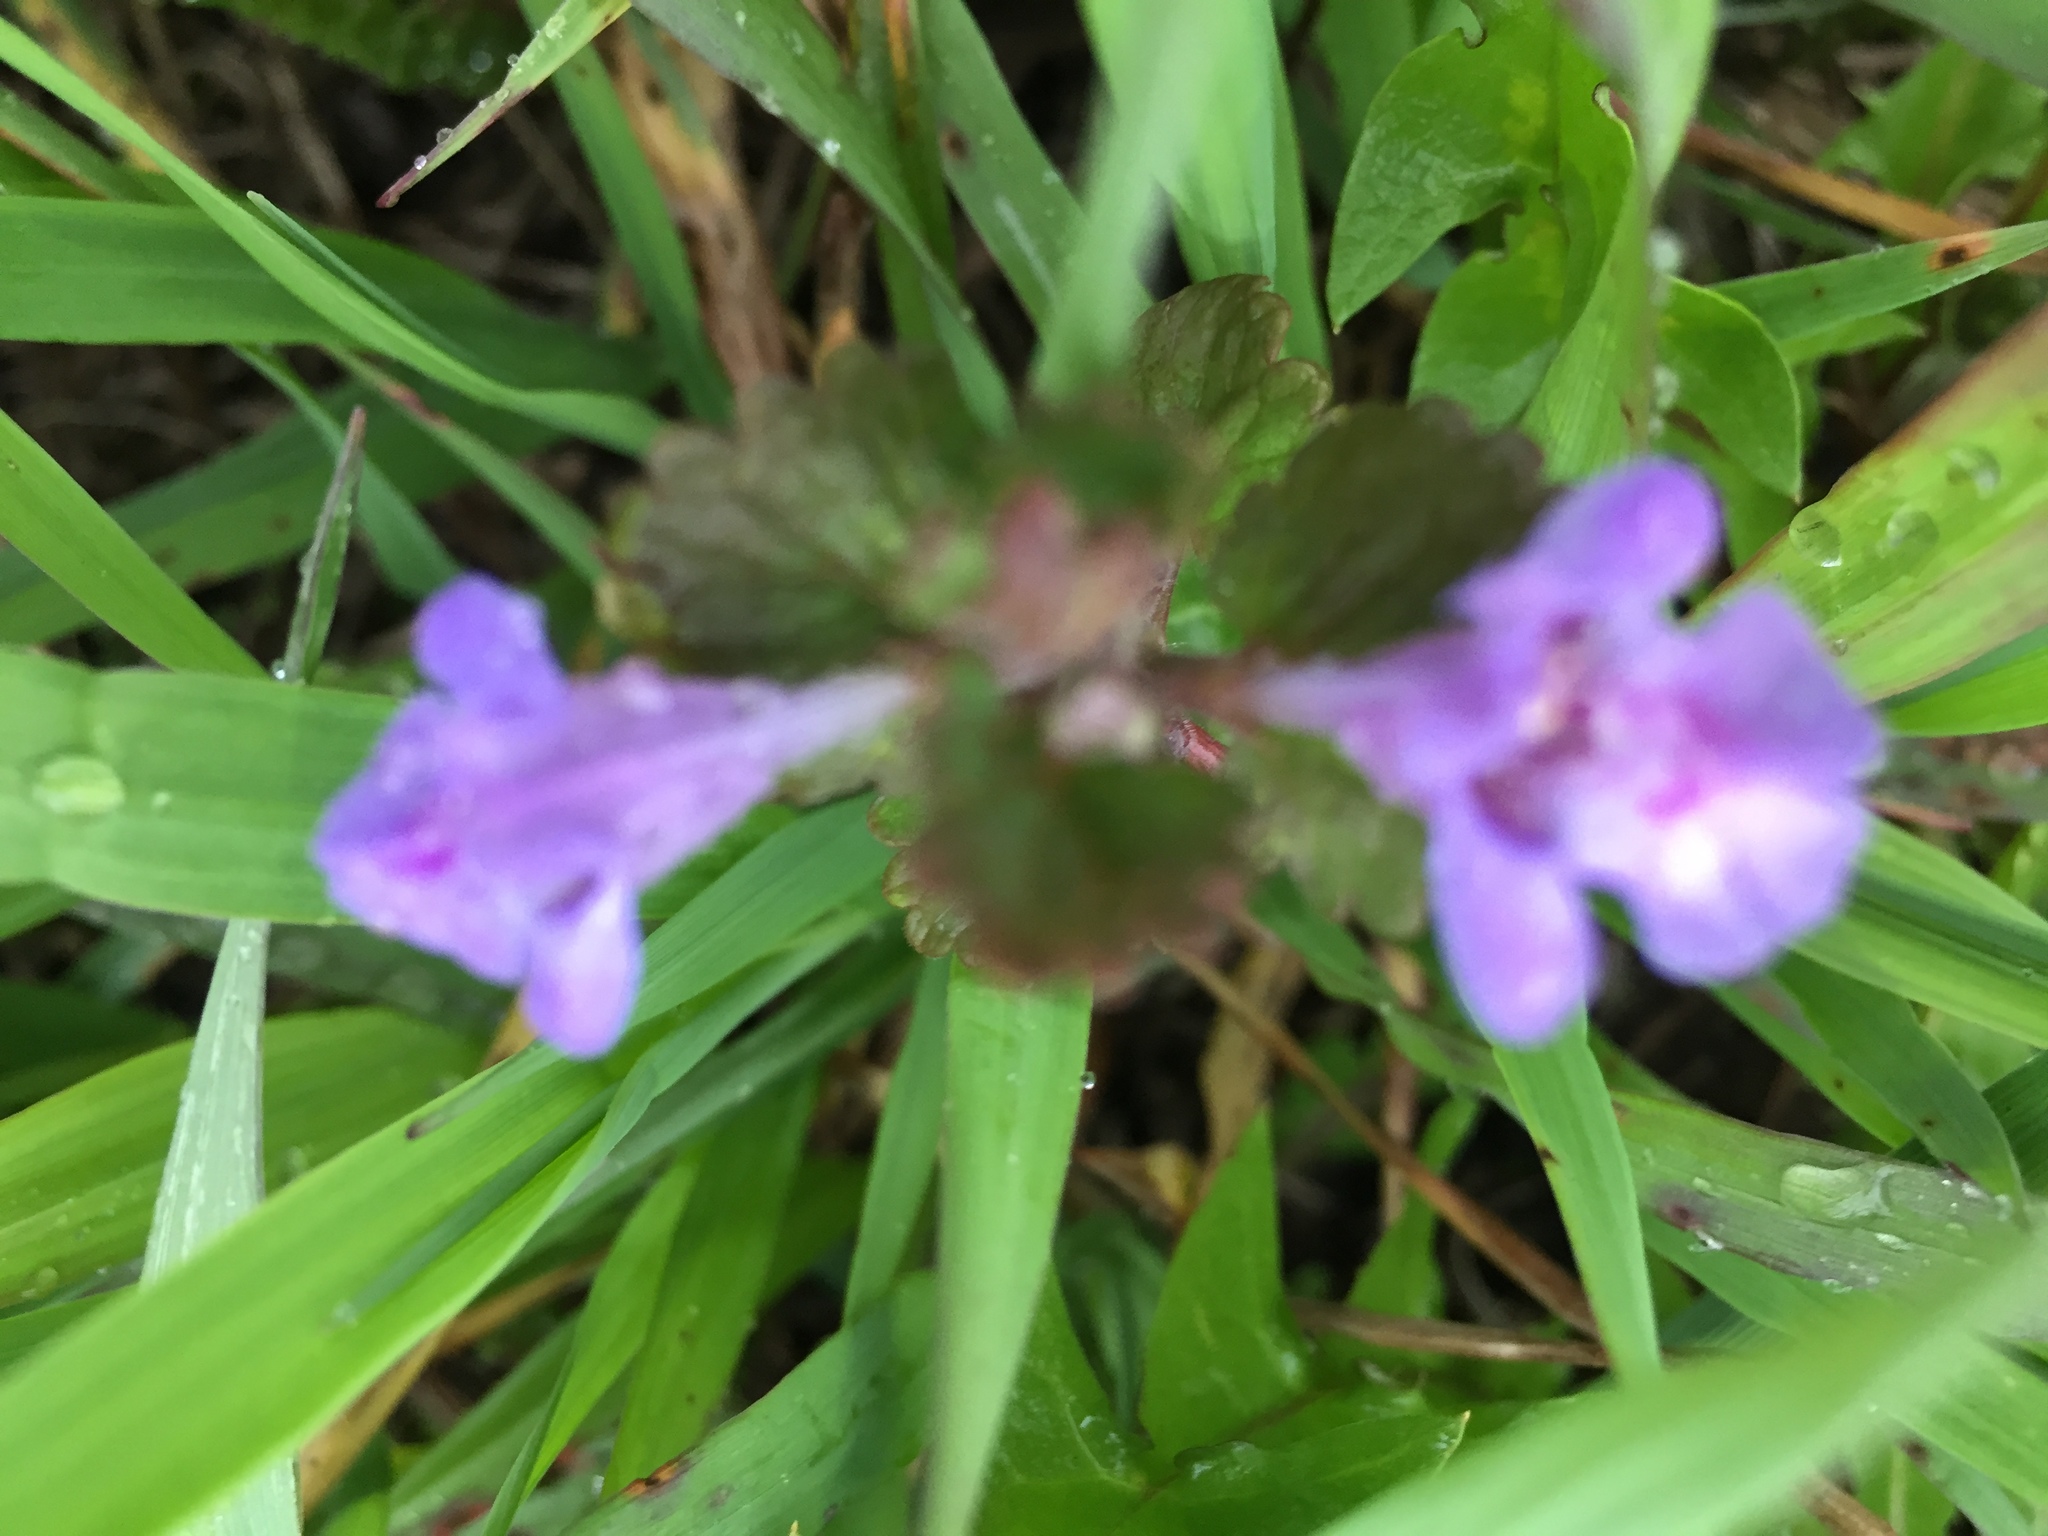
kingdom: Plantae
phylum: Tracheophyta
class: Magnoliopsida
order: Lamiales
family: Lamiaceae
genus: Glechoma
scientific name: Glechoma hederacea
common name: Ground ivy
